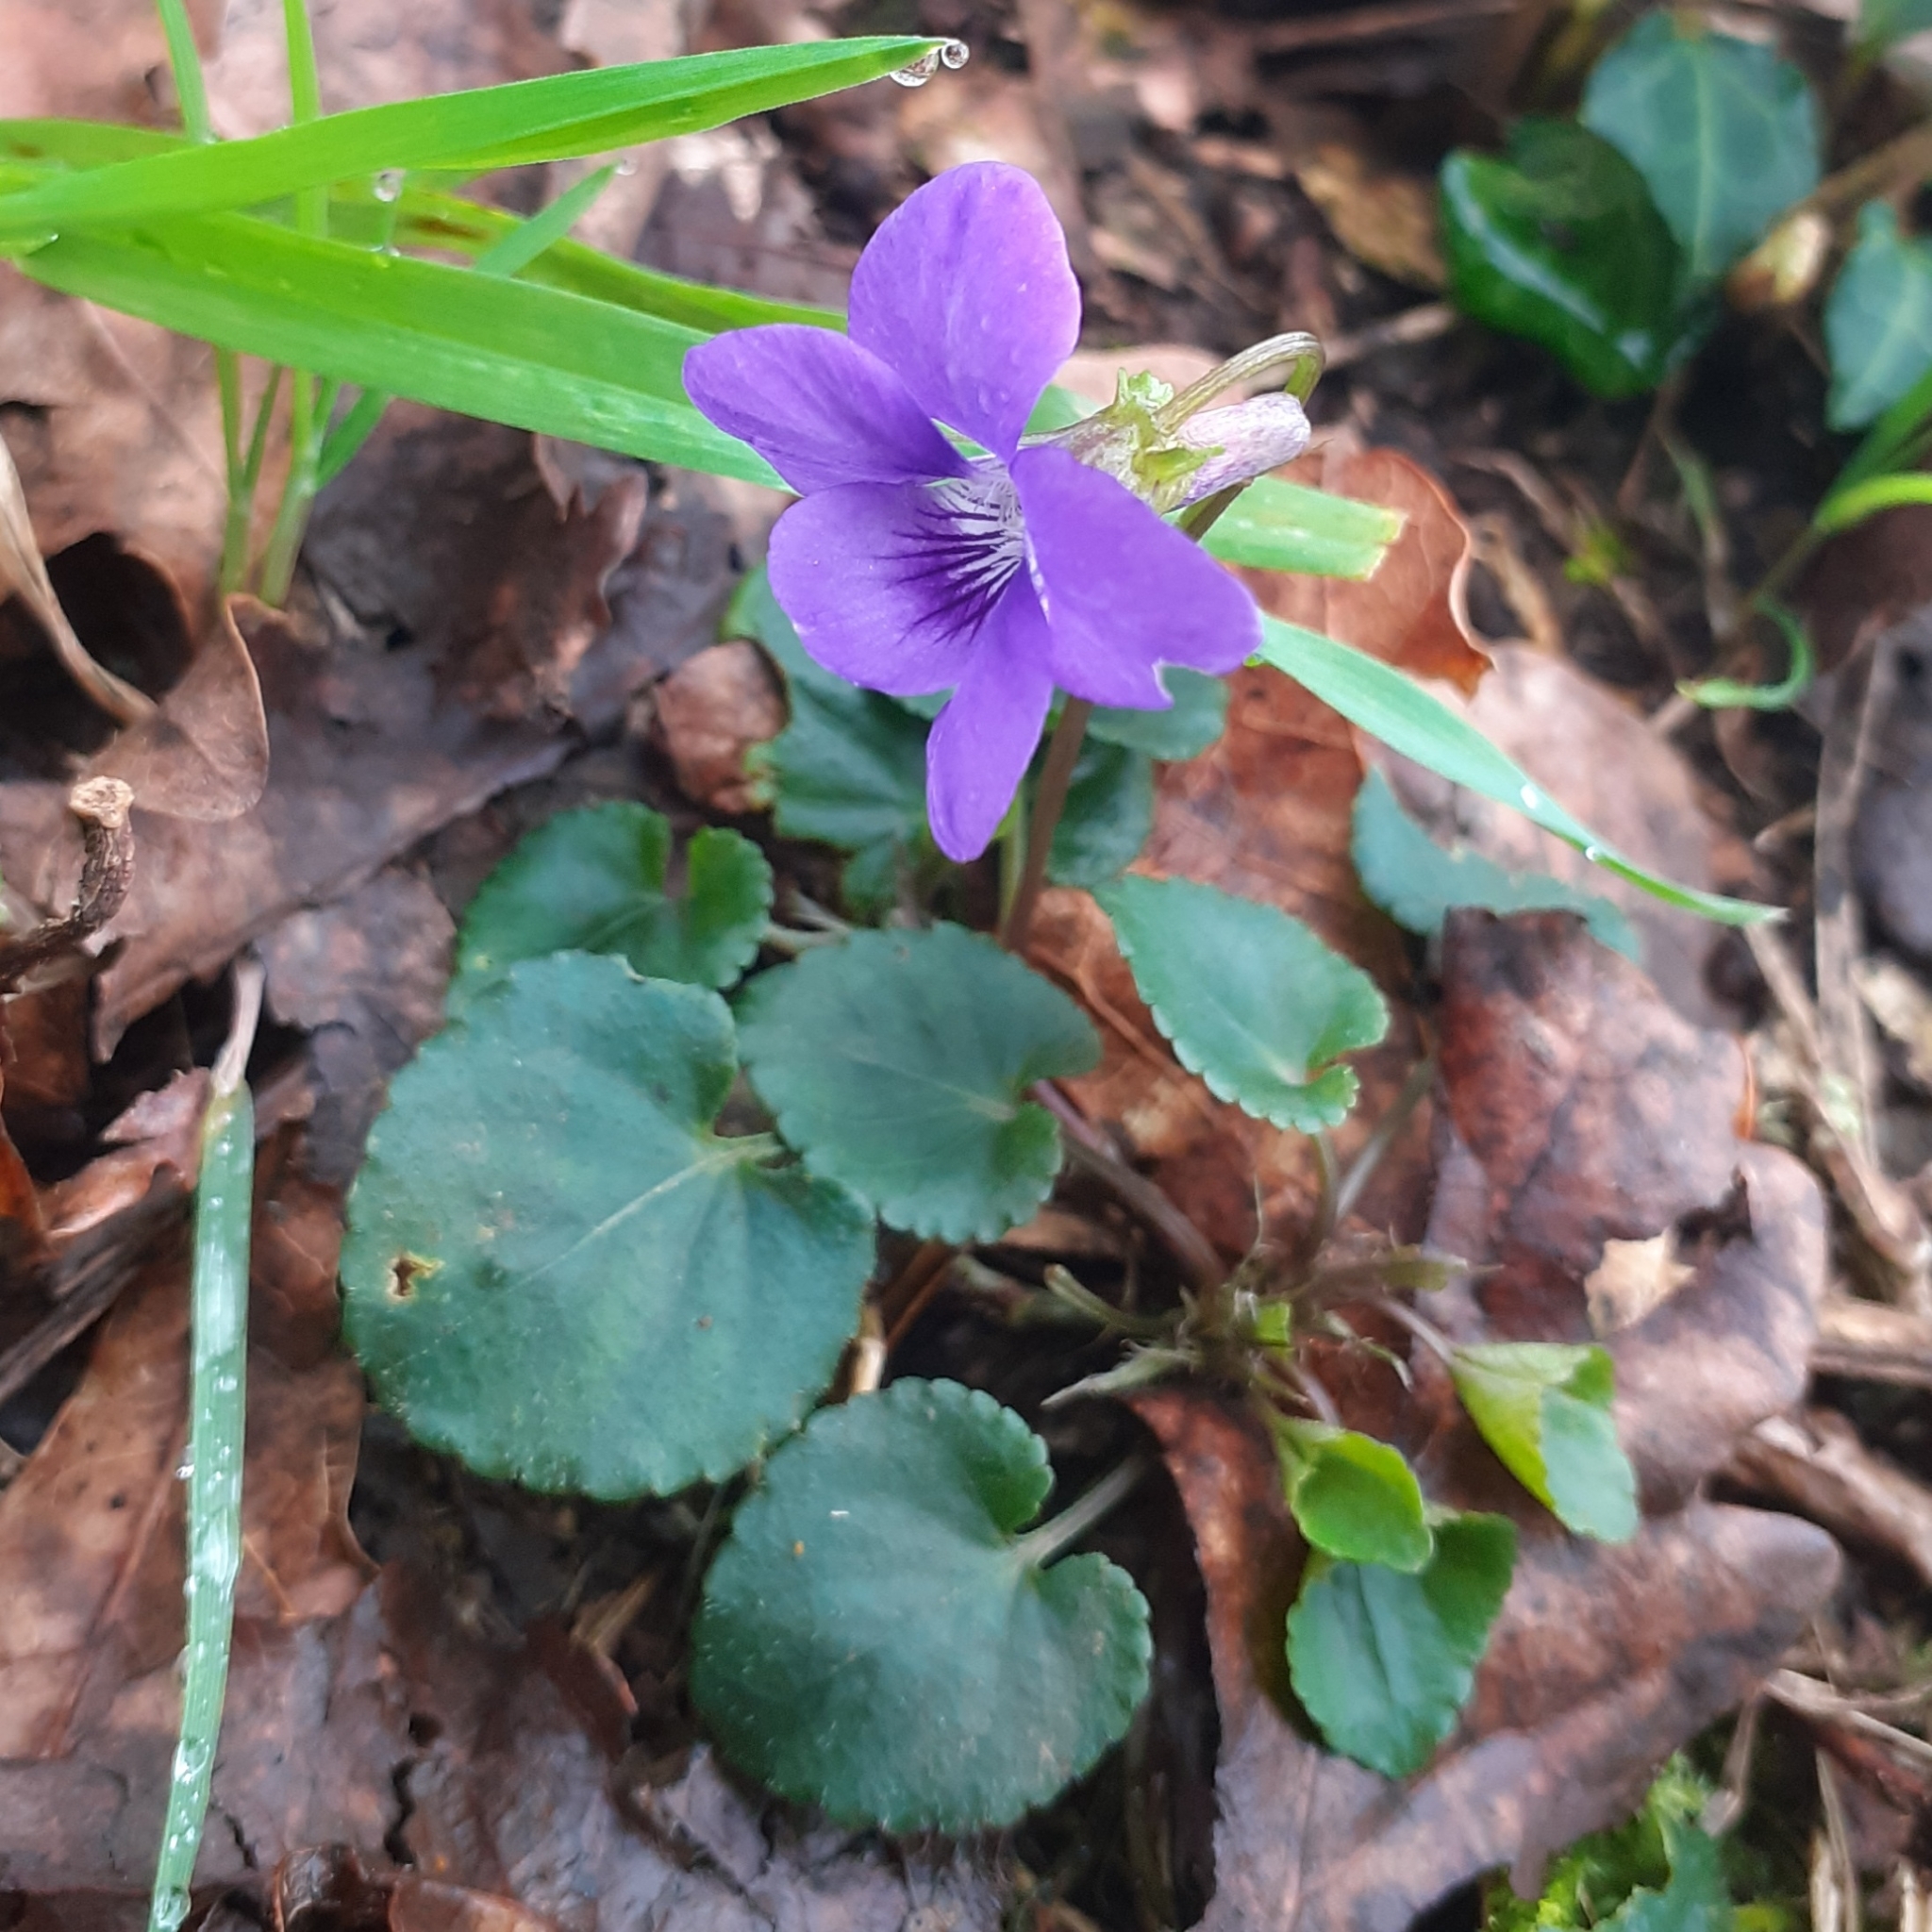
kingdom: Plantae
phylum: Tracheophyta
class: Magnoliopsida
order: Malpighiales
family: Violaceae
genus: Viola
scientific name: Viola riviniana
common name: Common dog-violet
